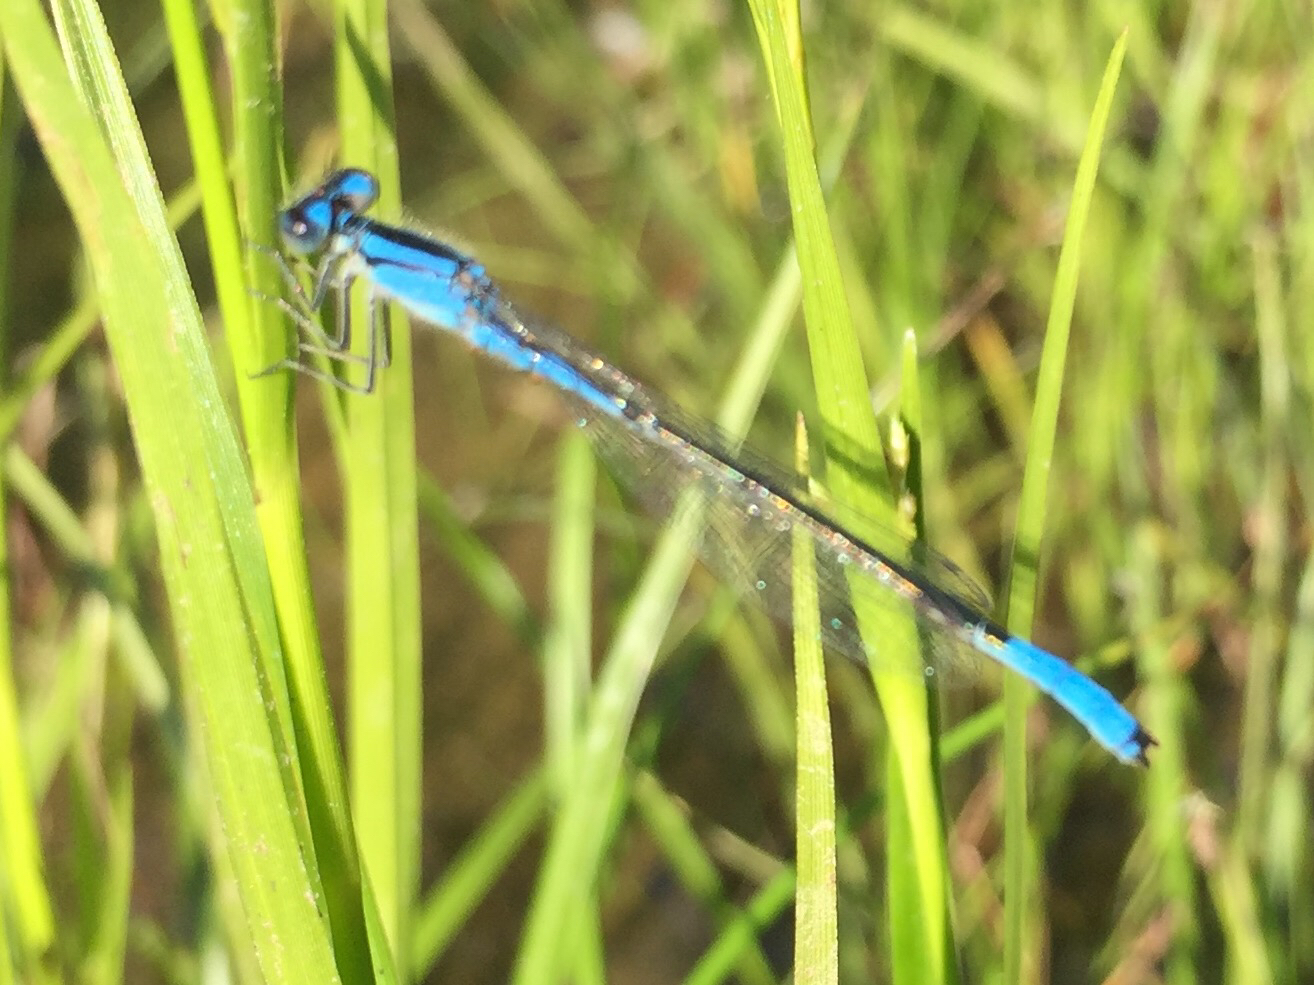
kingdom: Animalia
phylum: Arthropoda
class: Insecta
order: Odonata
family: Coenagrionidae
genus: Enallagma
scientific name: Enallagma aspersum
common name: Azure bluet
